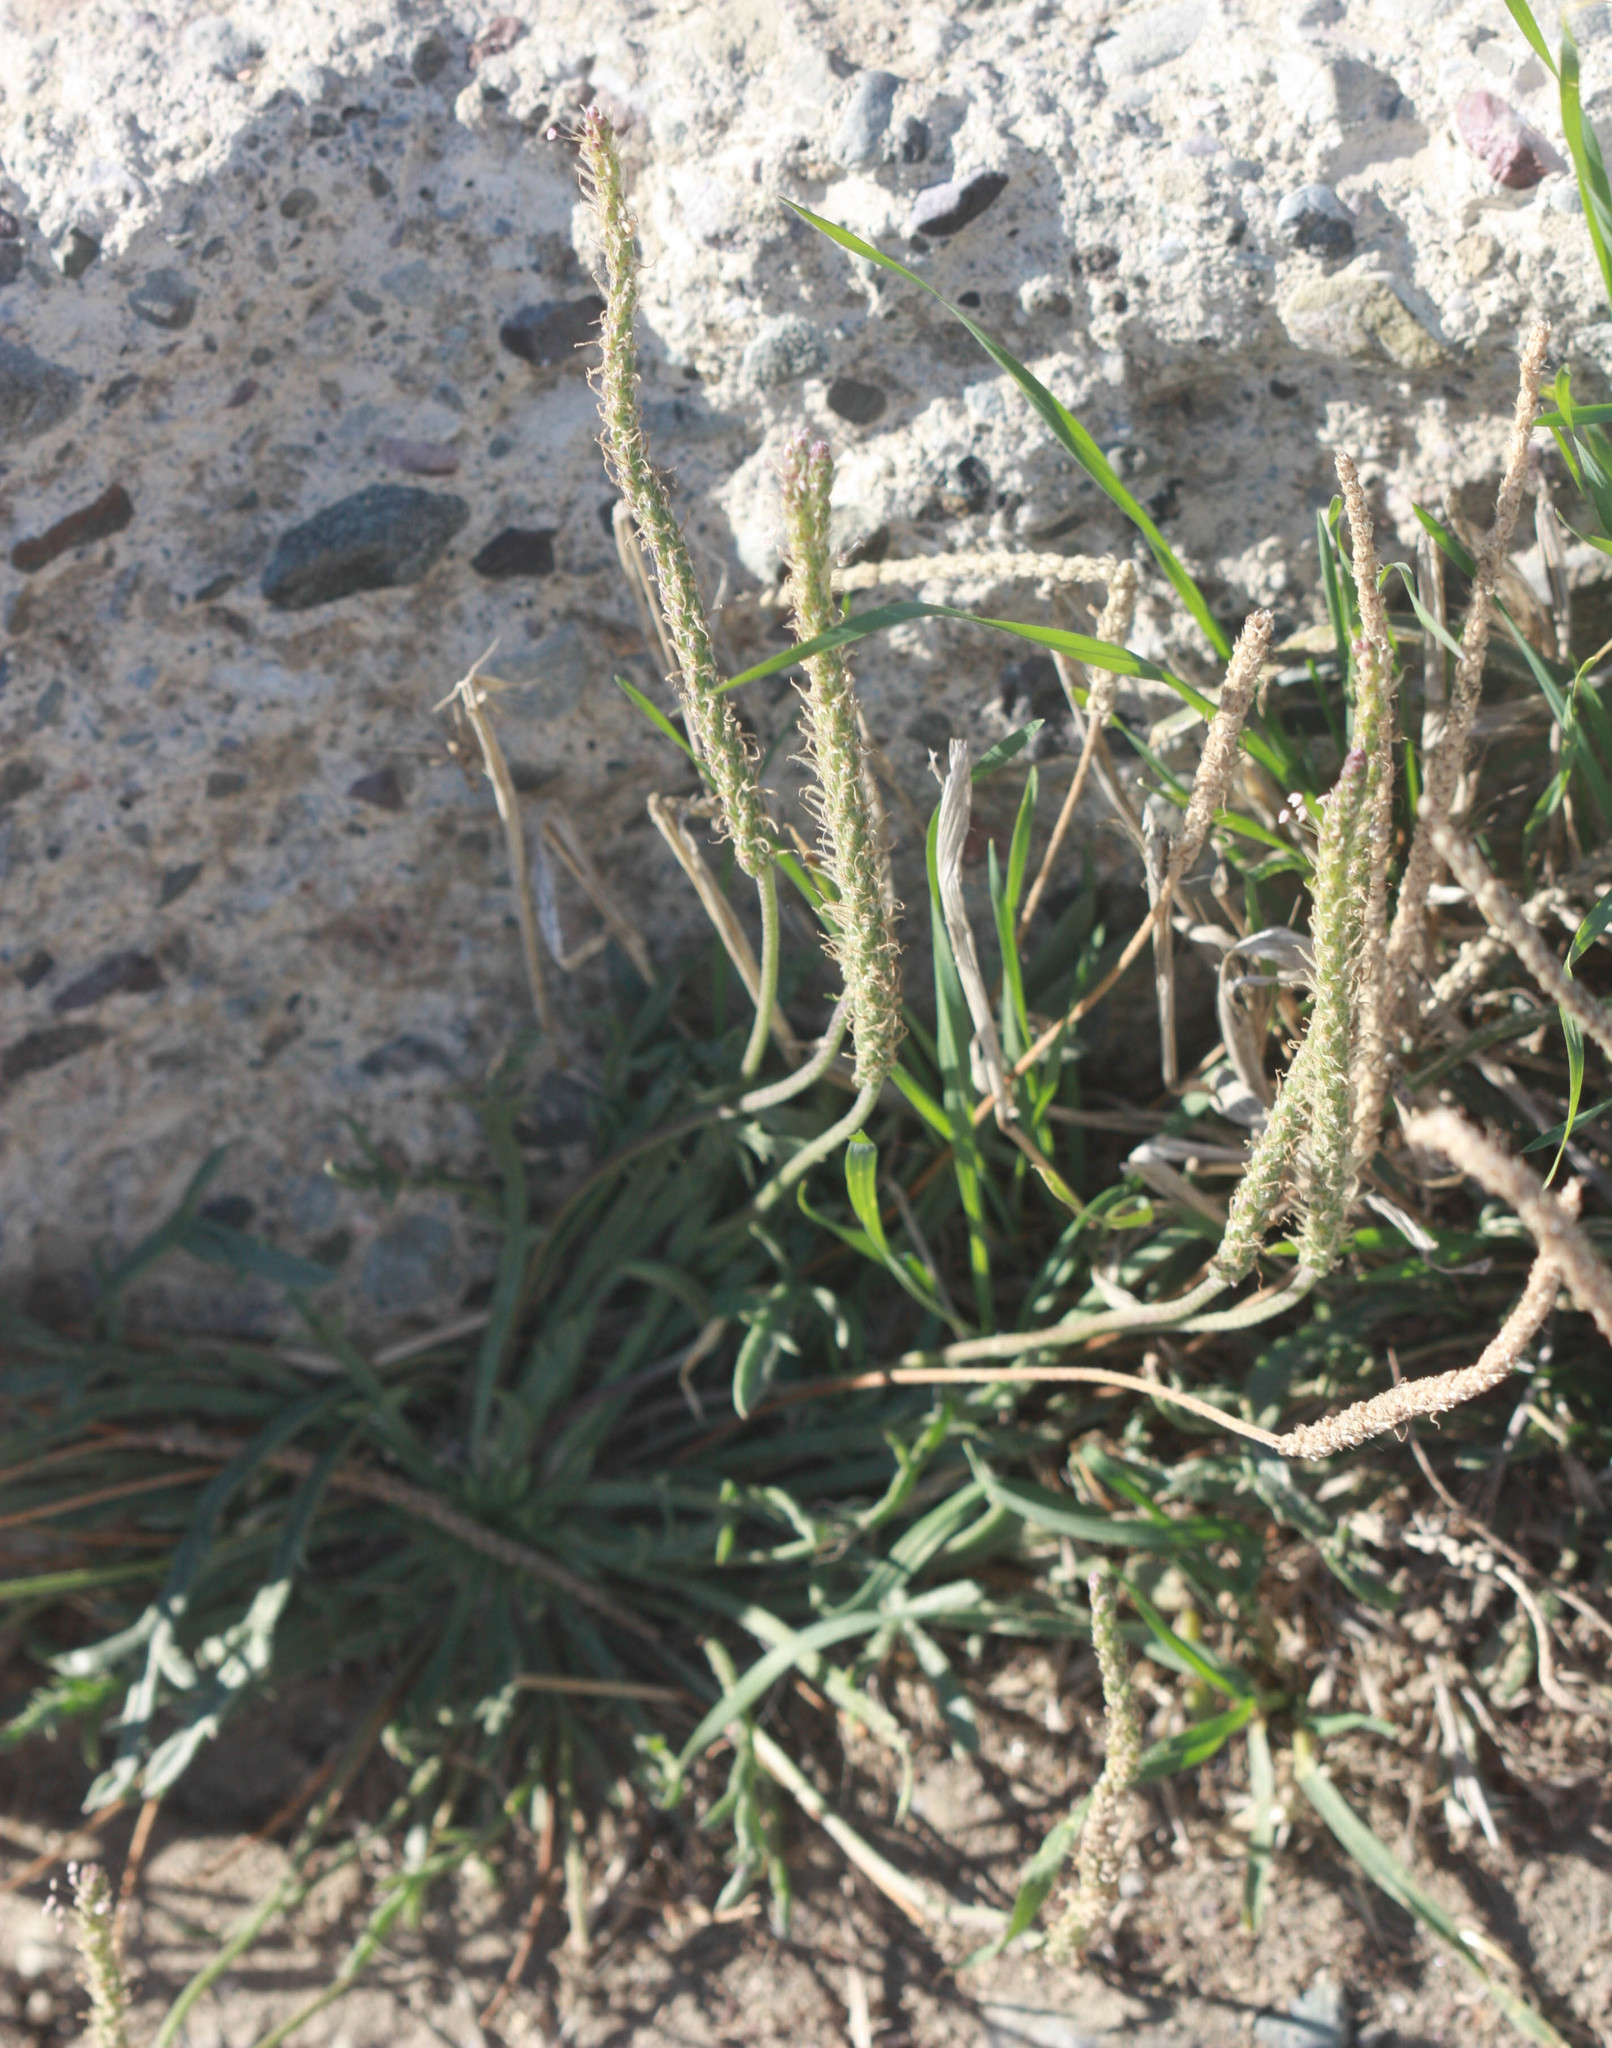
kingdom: Plantae
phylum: Tracheophyta
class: Magnoliopsida
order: Lamiales
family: Plantaginaceae
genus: Plantago
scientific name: Plantago coronopus
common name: Buck's-horn plantain
